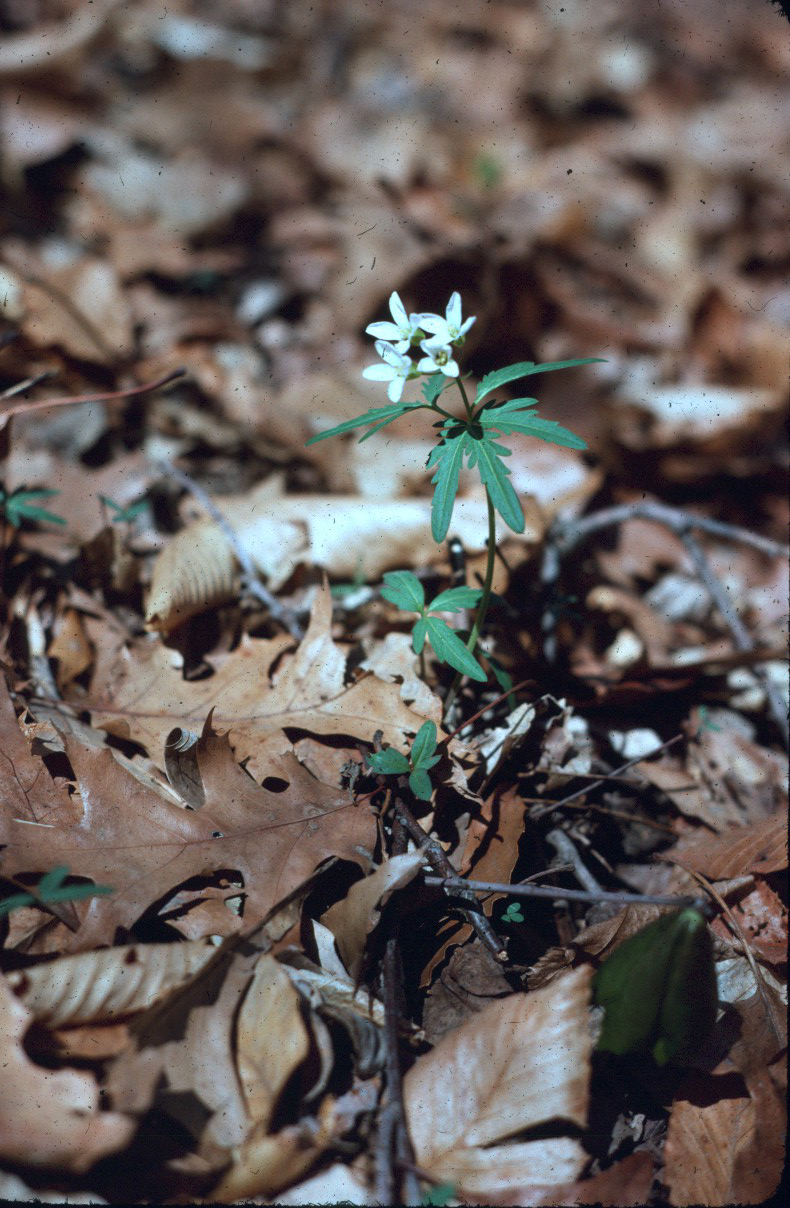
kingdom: Plantae
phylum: Tracheophyta
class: Magnoliopsida
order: Brassicales
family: Brassicaceae
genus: Cardamine
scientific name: Cardamine concatenata
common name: Cut-leaf toothcup
